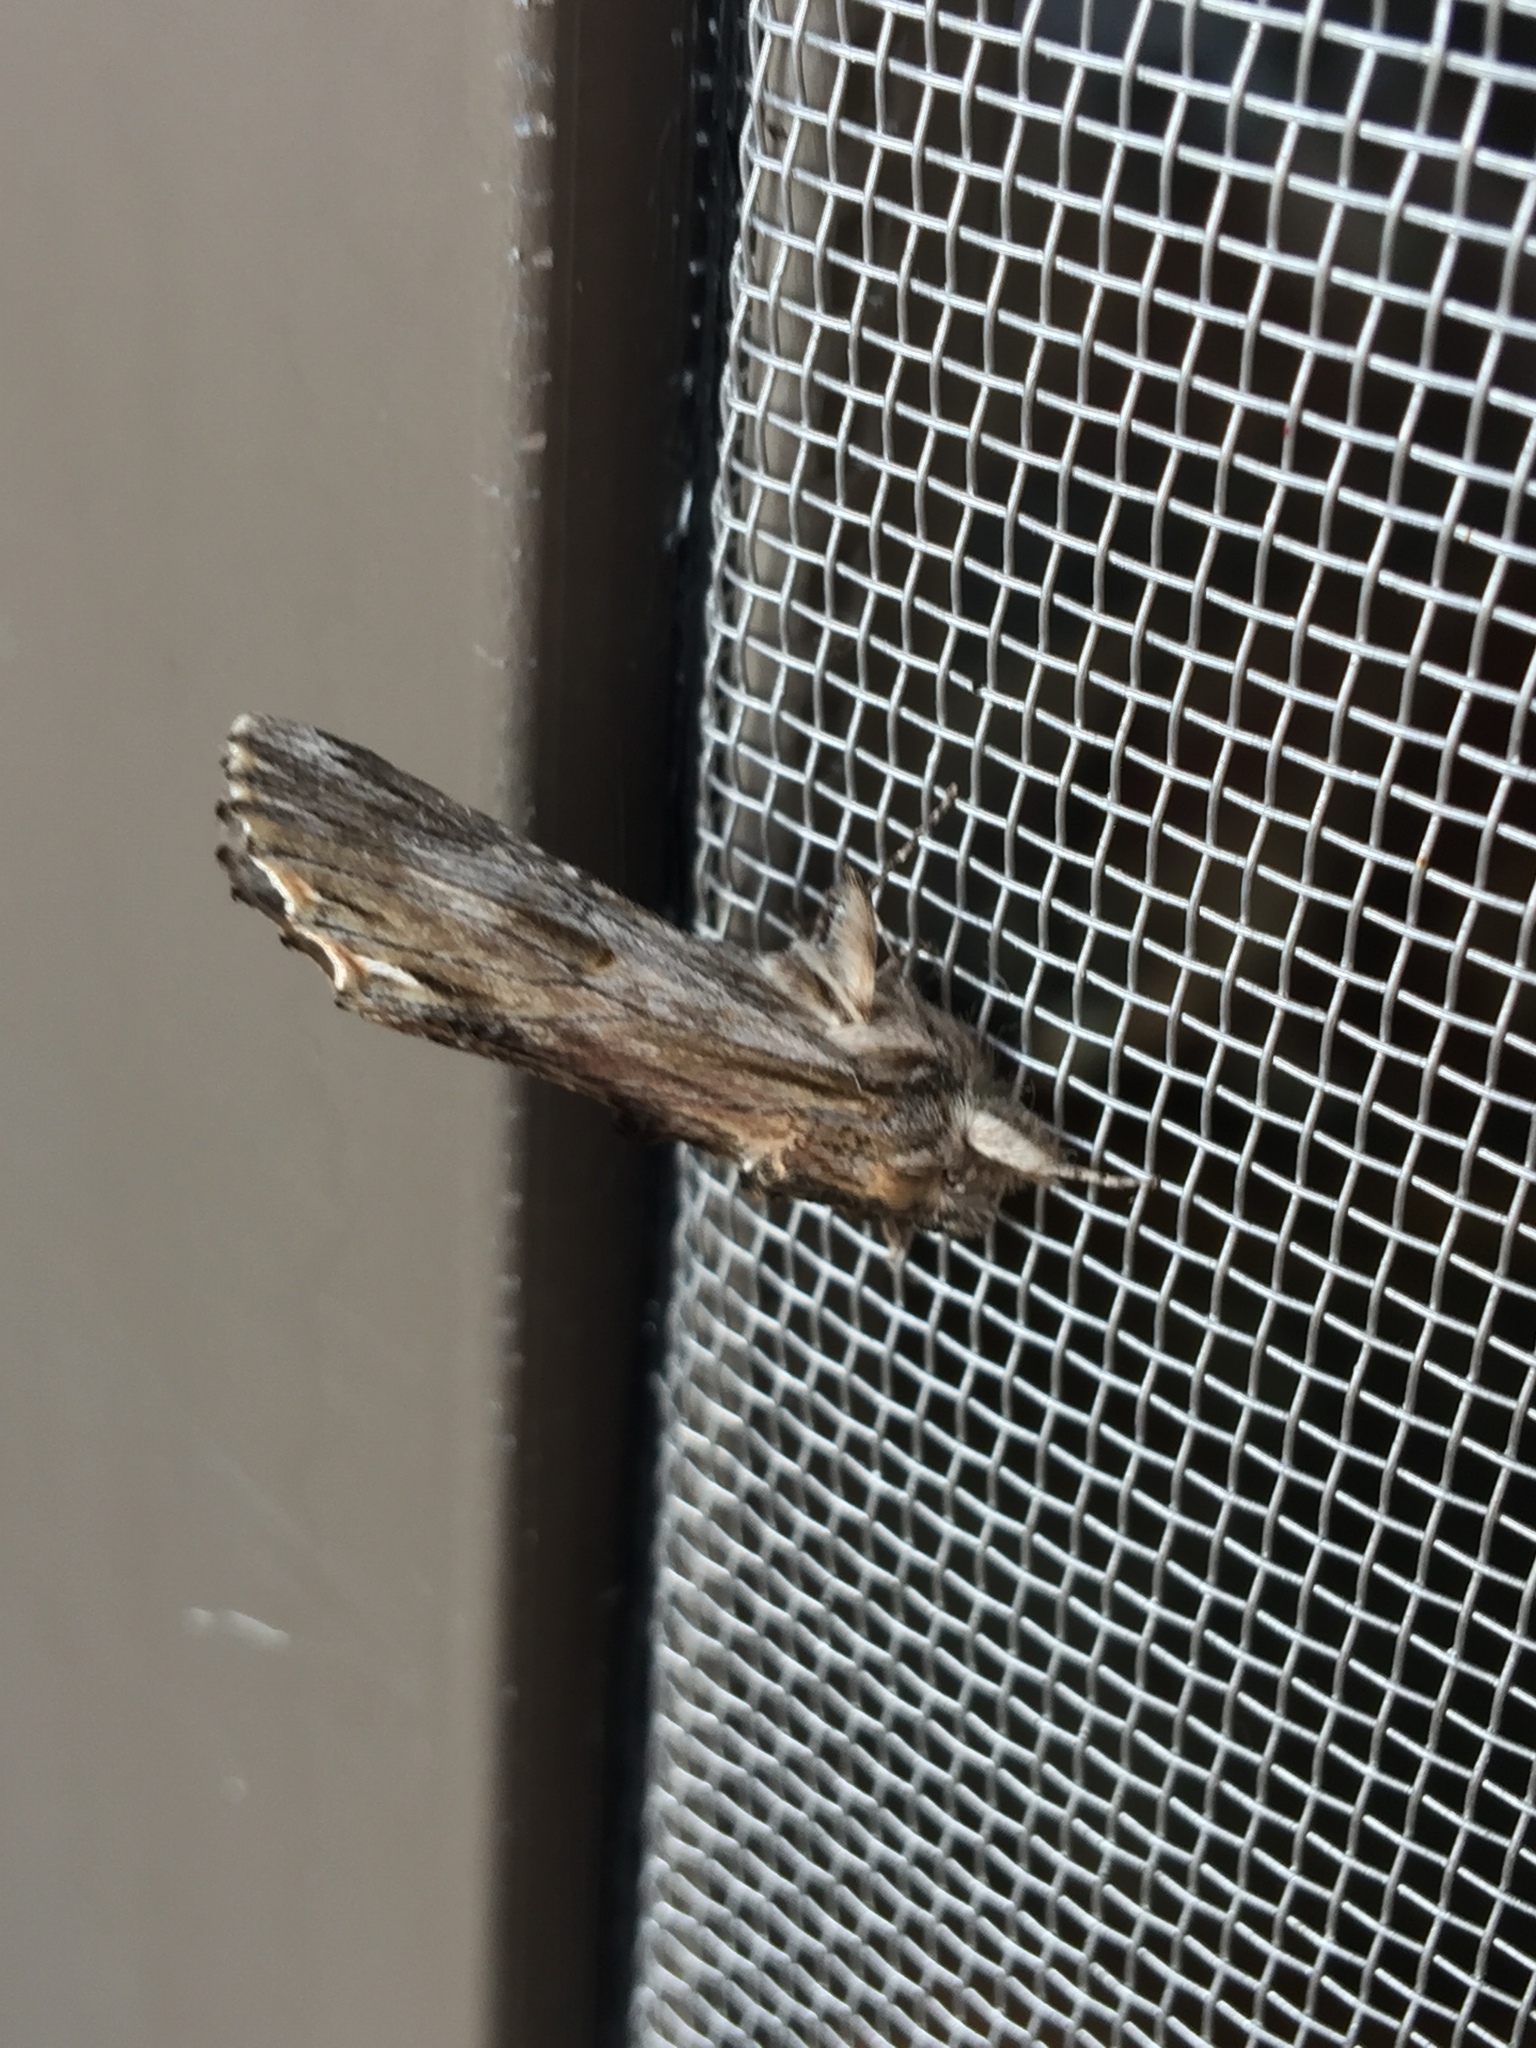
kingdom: Animalia
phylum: Arthropoda
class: Insecta
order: Lepidoptera
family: Notodontidae
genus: Oligocentria
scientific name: Oligocentria Ianassa lignicolor
